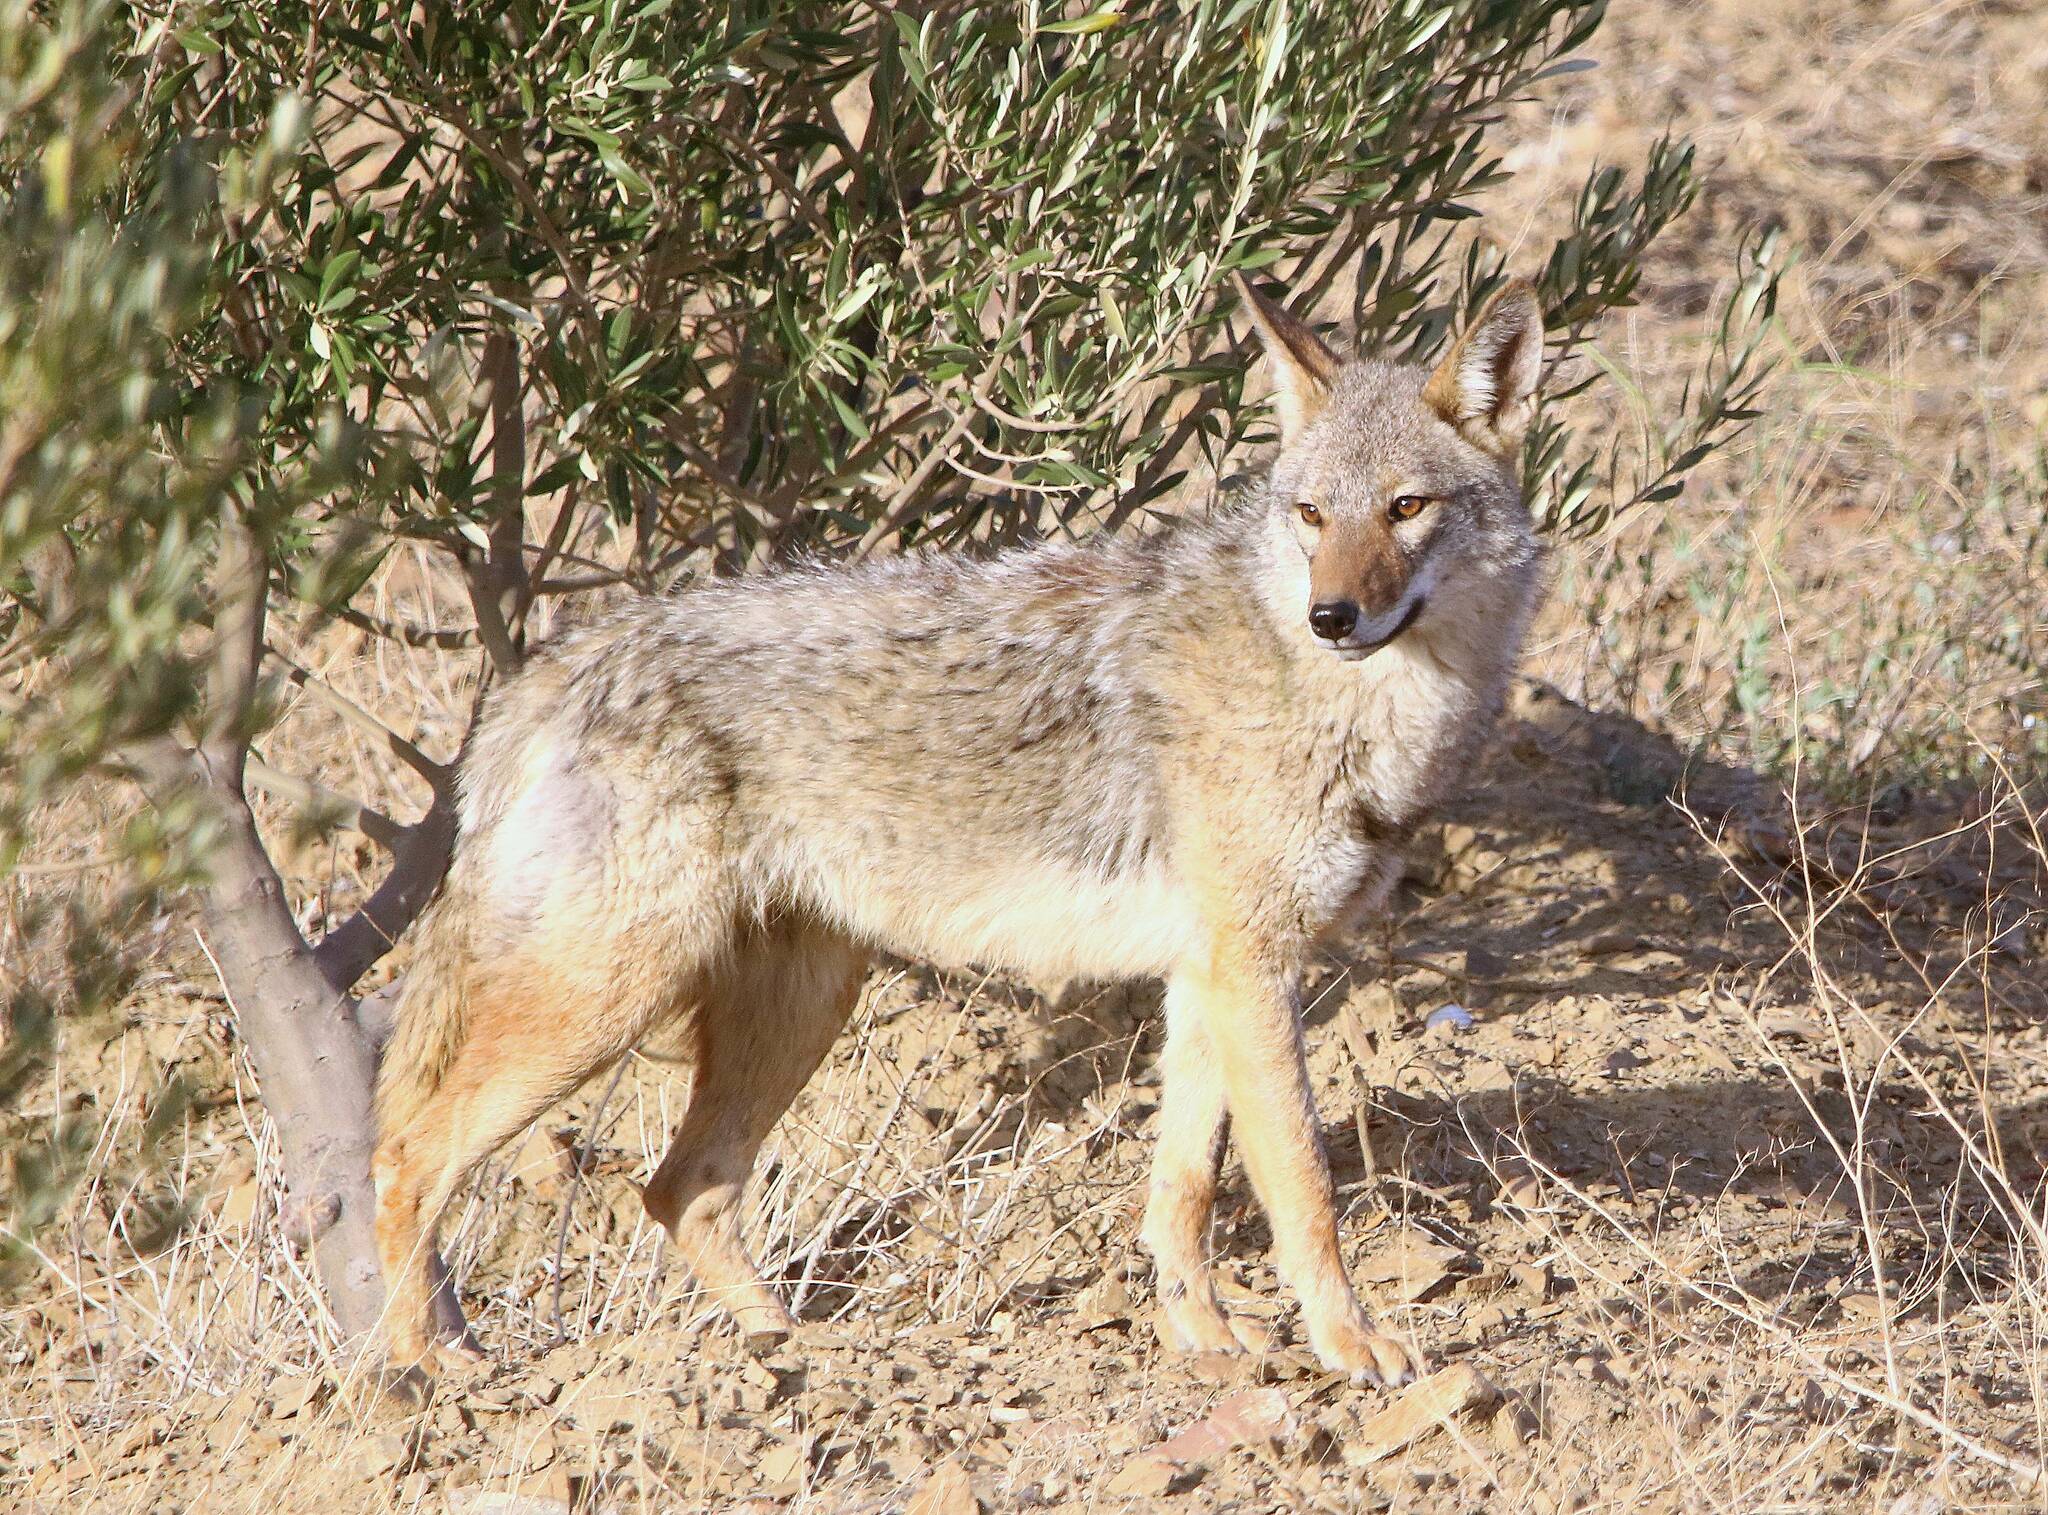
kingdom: Animalia
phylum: Chordata
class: Mammalia
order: Carnivora
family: Canidae
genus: Canis
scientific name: Canis lupaster
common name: African golden wolf
